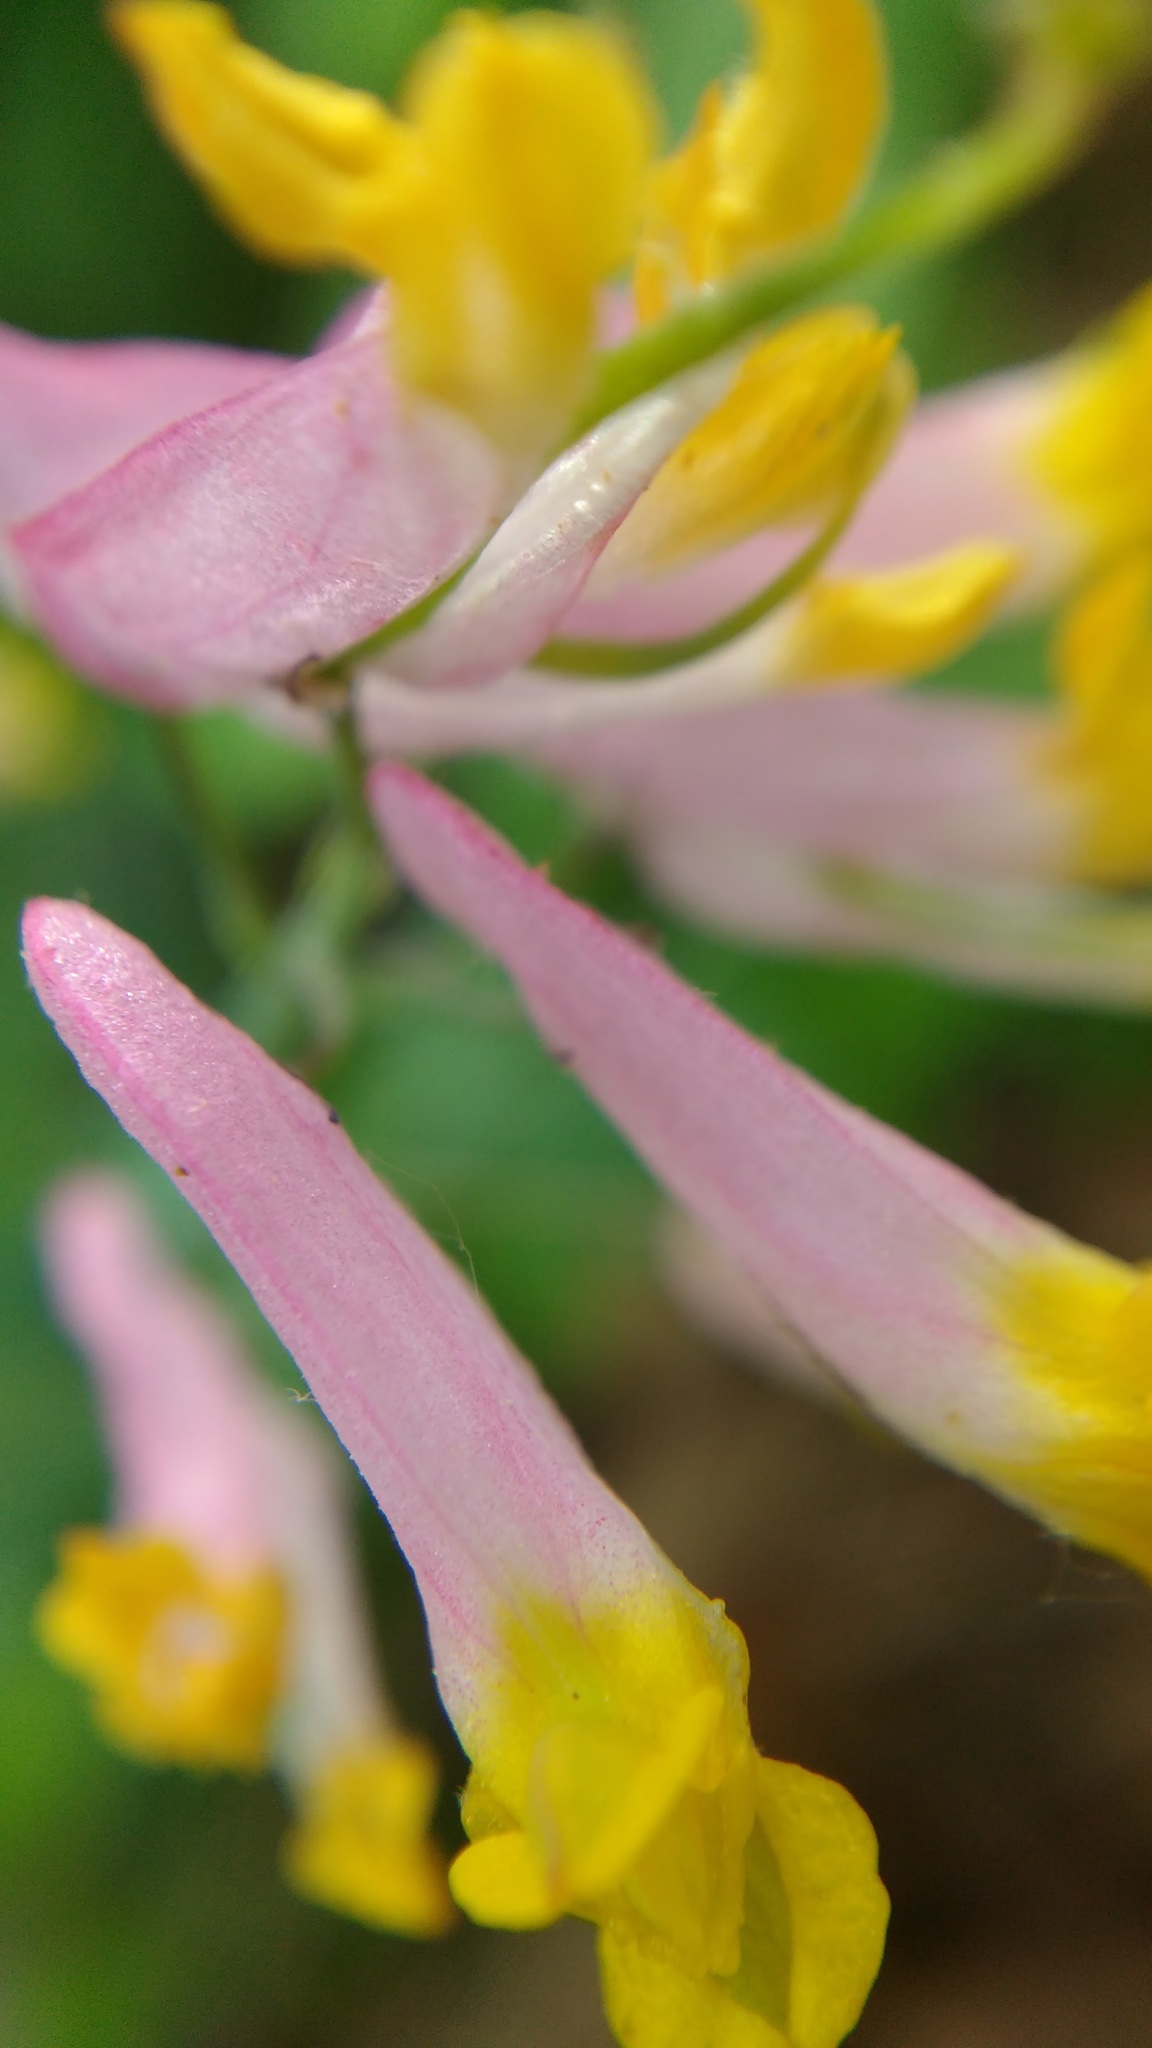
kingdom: Plantae
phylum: Tracheophyta
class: Magnoliopsida
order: Ranunculales
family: Papaveraceae
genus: Capnoides
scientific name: Capnoides sempervirens
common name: Rock harlequin
